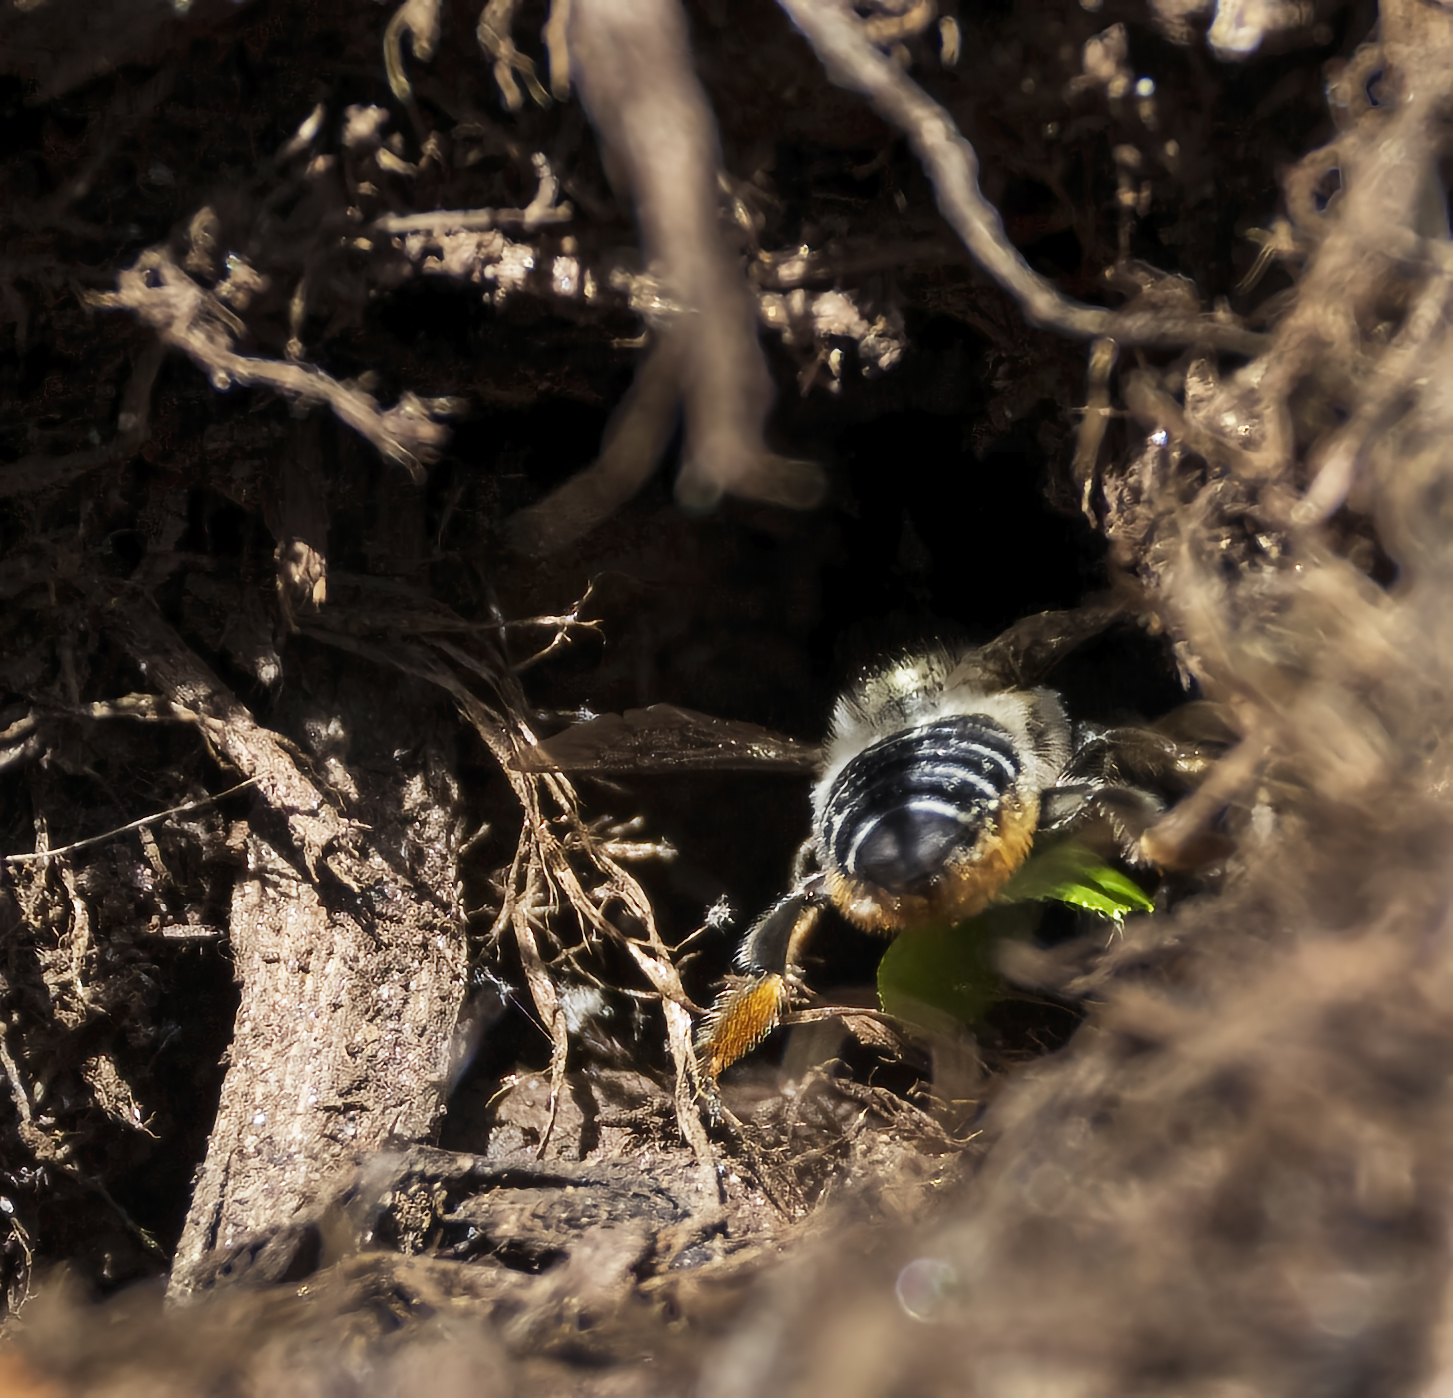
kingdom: Animalia
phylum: Arthropoda
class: Insecta
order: Hymenoptera
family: Megachilidae
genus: Megachile
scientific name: Megachile
